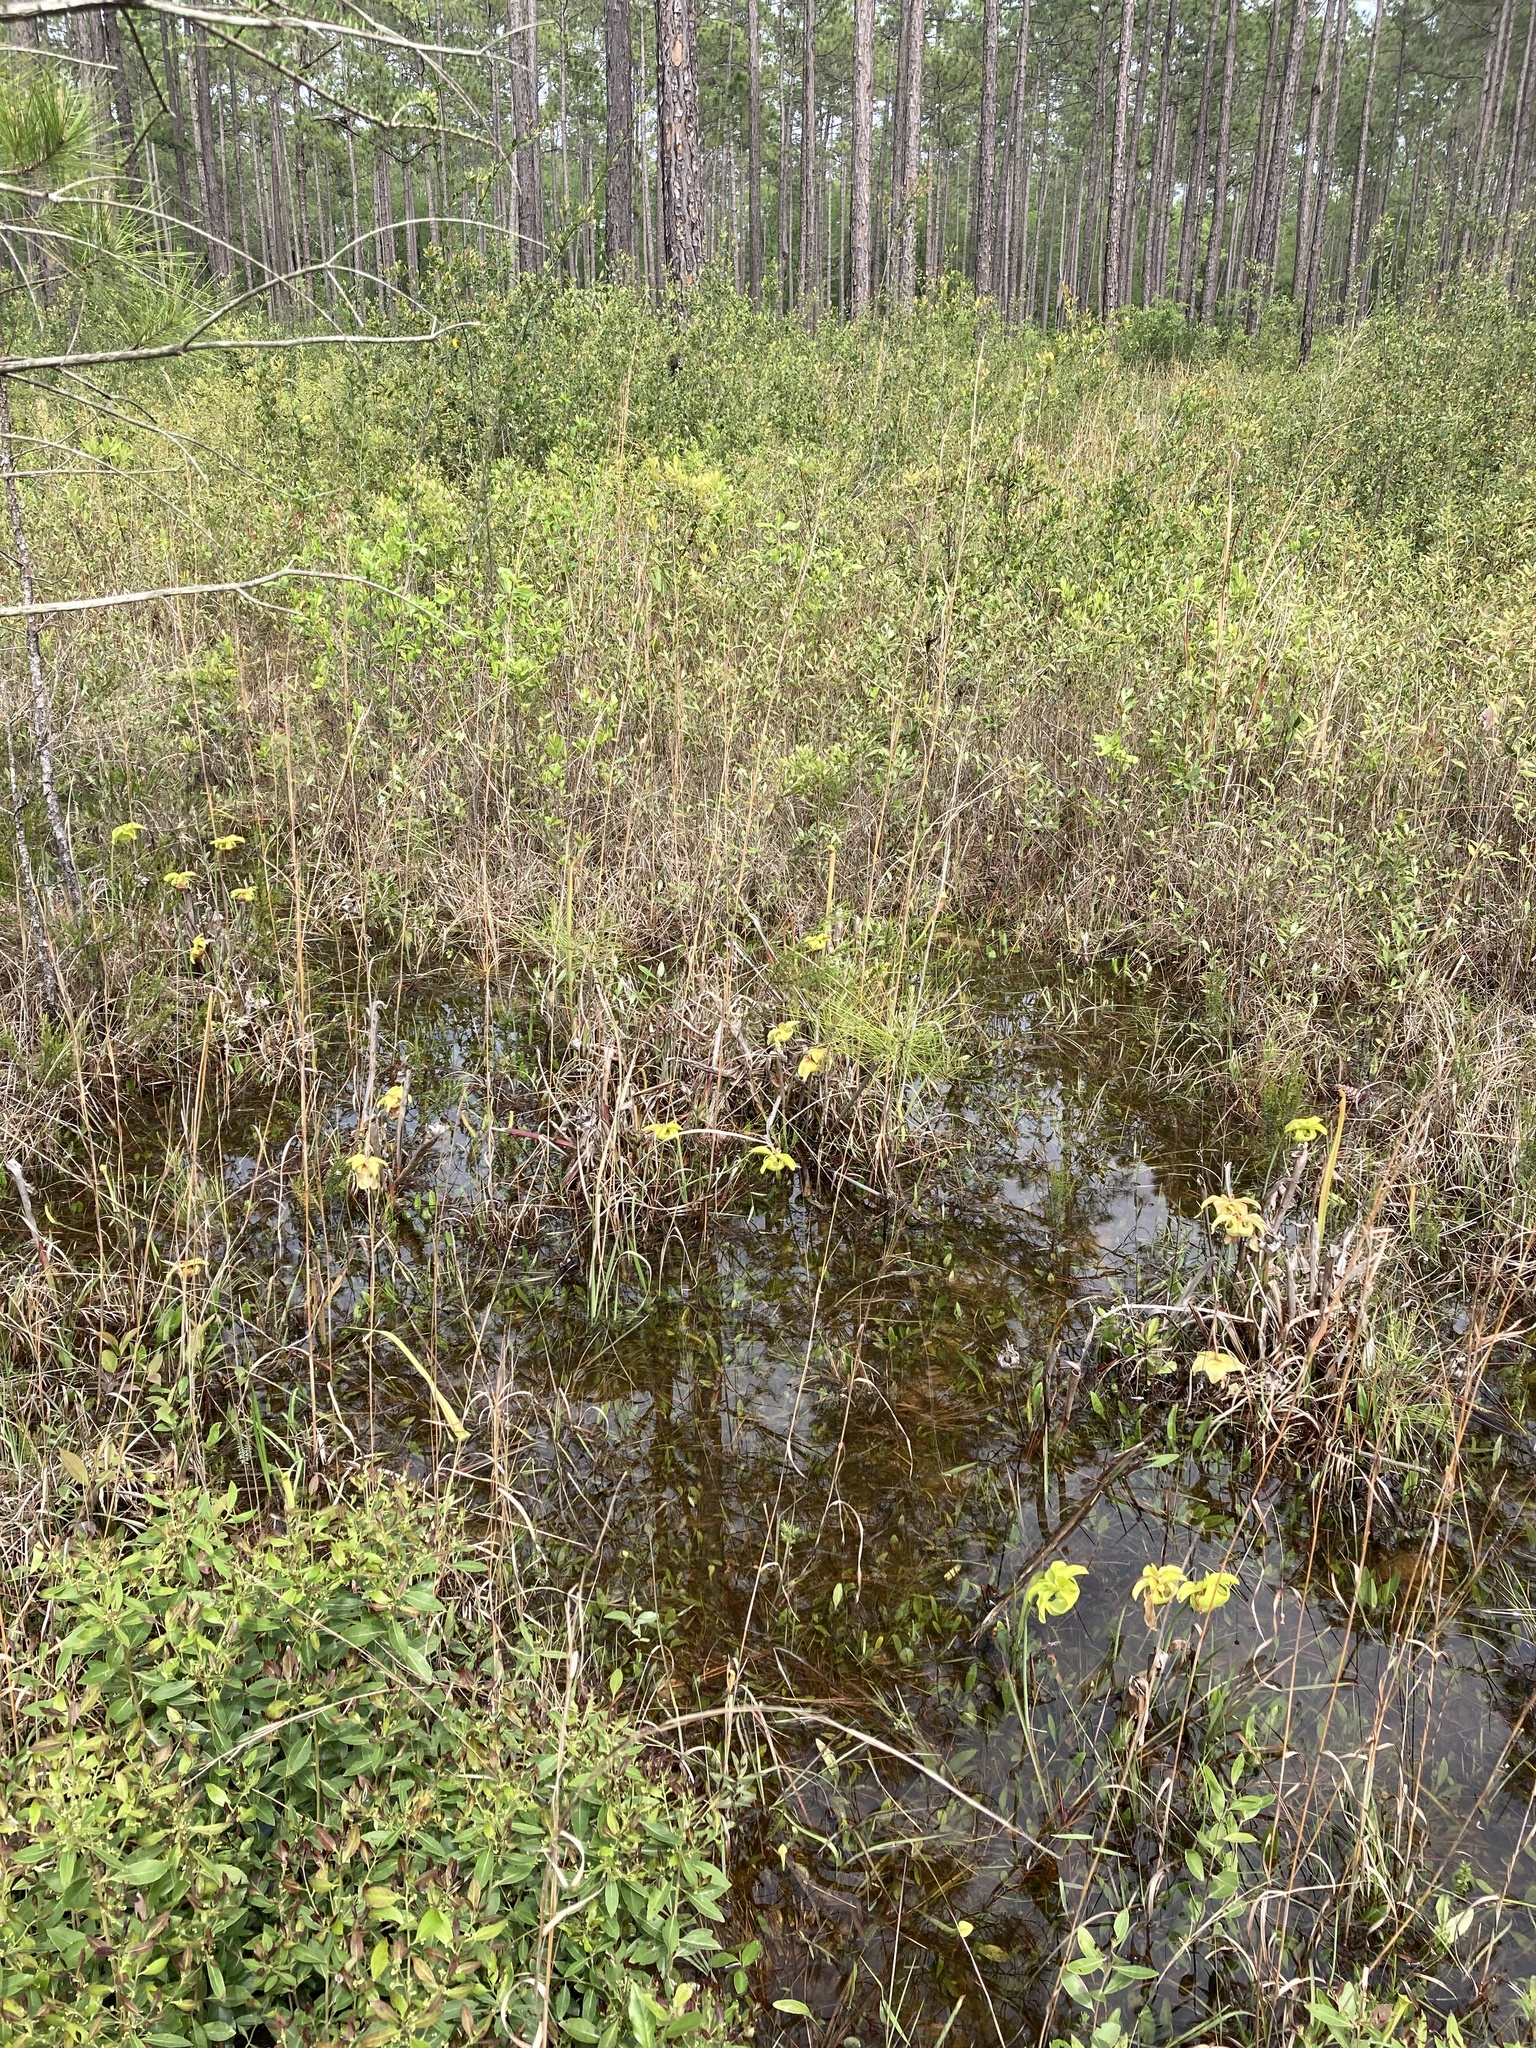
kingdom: Plantae
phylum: Tracheophyta
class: Magnoliopsida
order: Ericales
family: Sarraceniaceae
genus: Sarracenia
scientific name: Sarracenia alata
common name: Yellow trumpets
